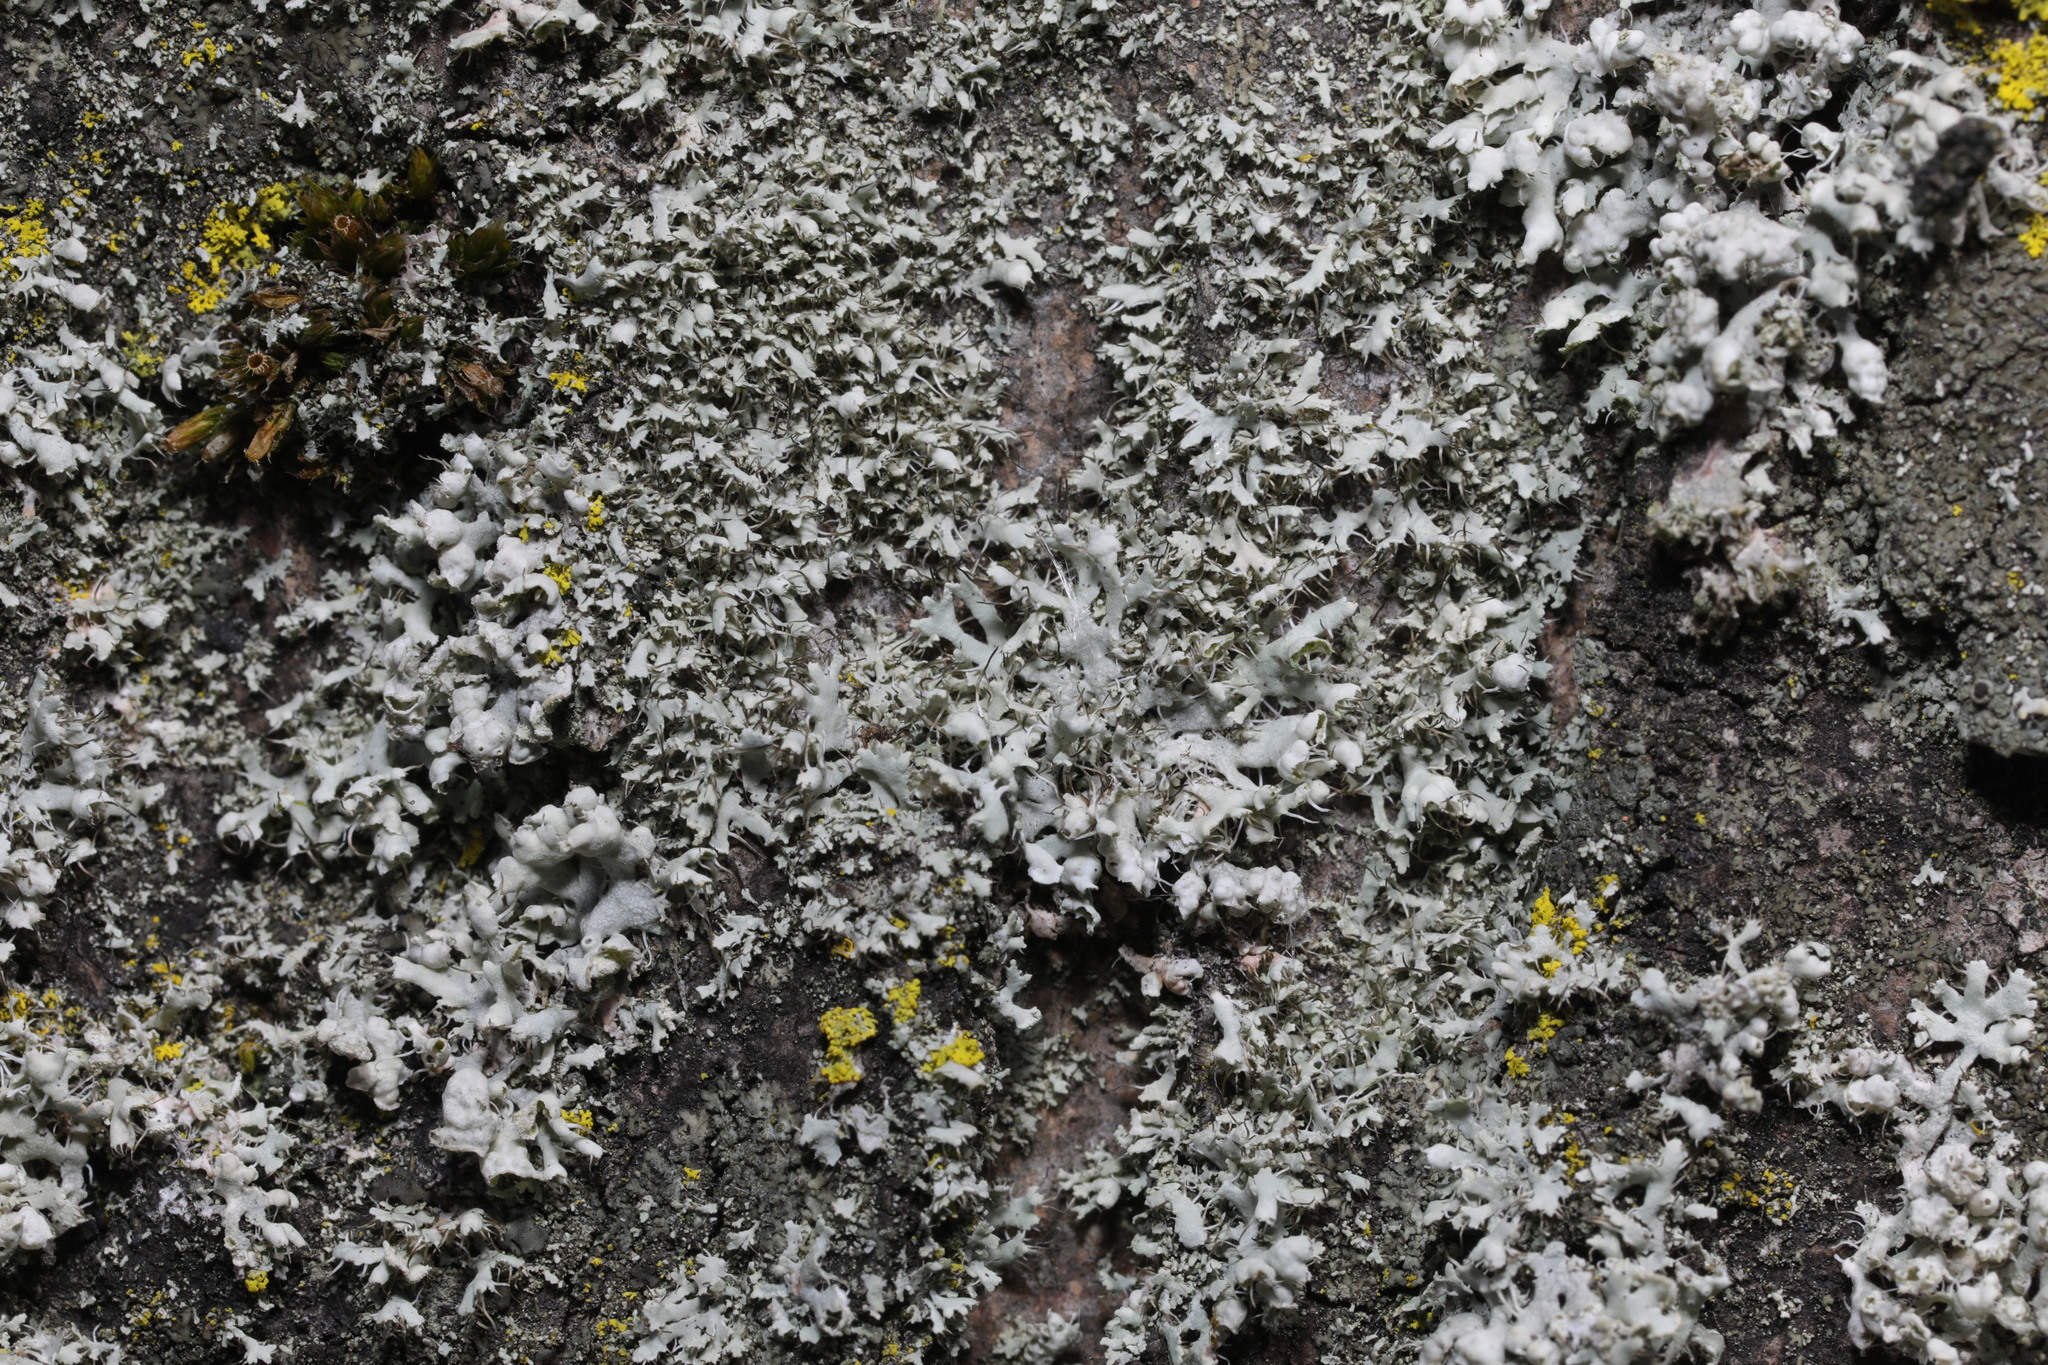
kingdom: Fungi
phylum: Ascomycota
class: Lecanoromycetes
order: Caliciales
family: Physciaceae
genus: Physcia
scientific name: Physcia adscendens
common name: Hooded rosette lichen
